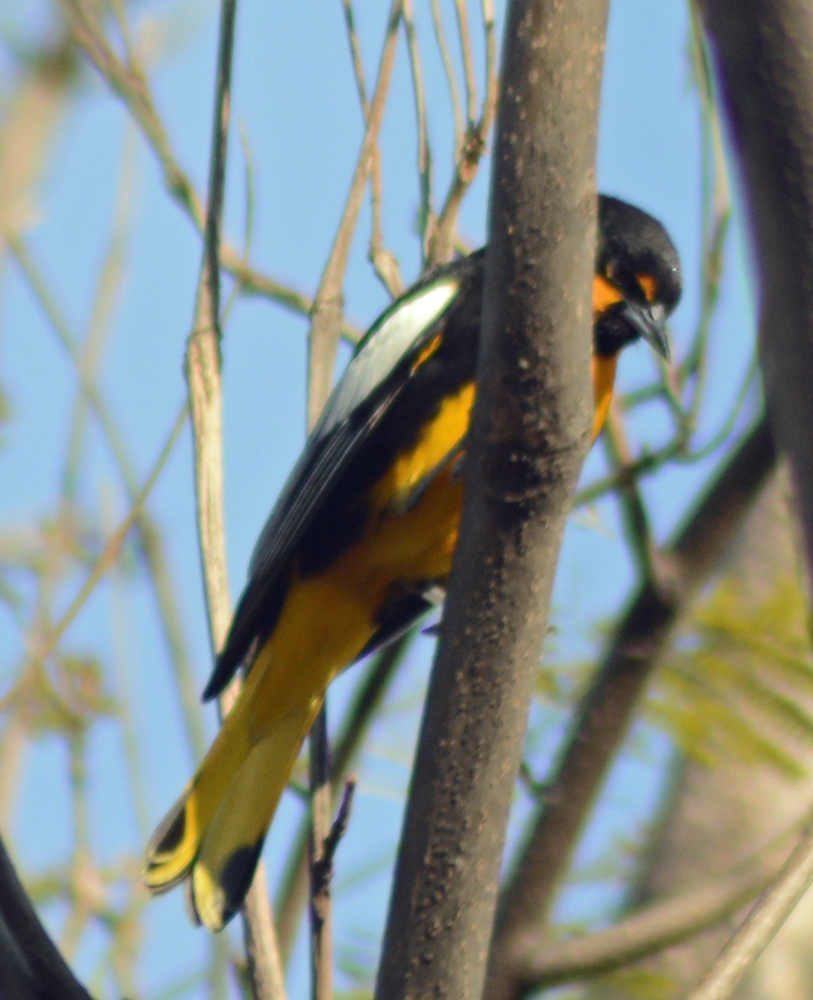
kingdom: Animalia
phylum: Chordata
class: Aves
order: Passeriformes
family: Icteridae
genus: Icterus
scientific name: Icterus abeillei
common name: Black-backed oriole
